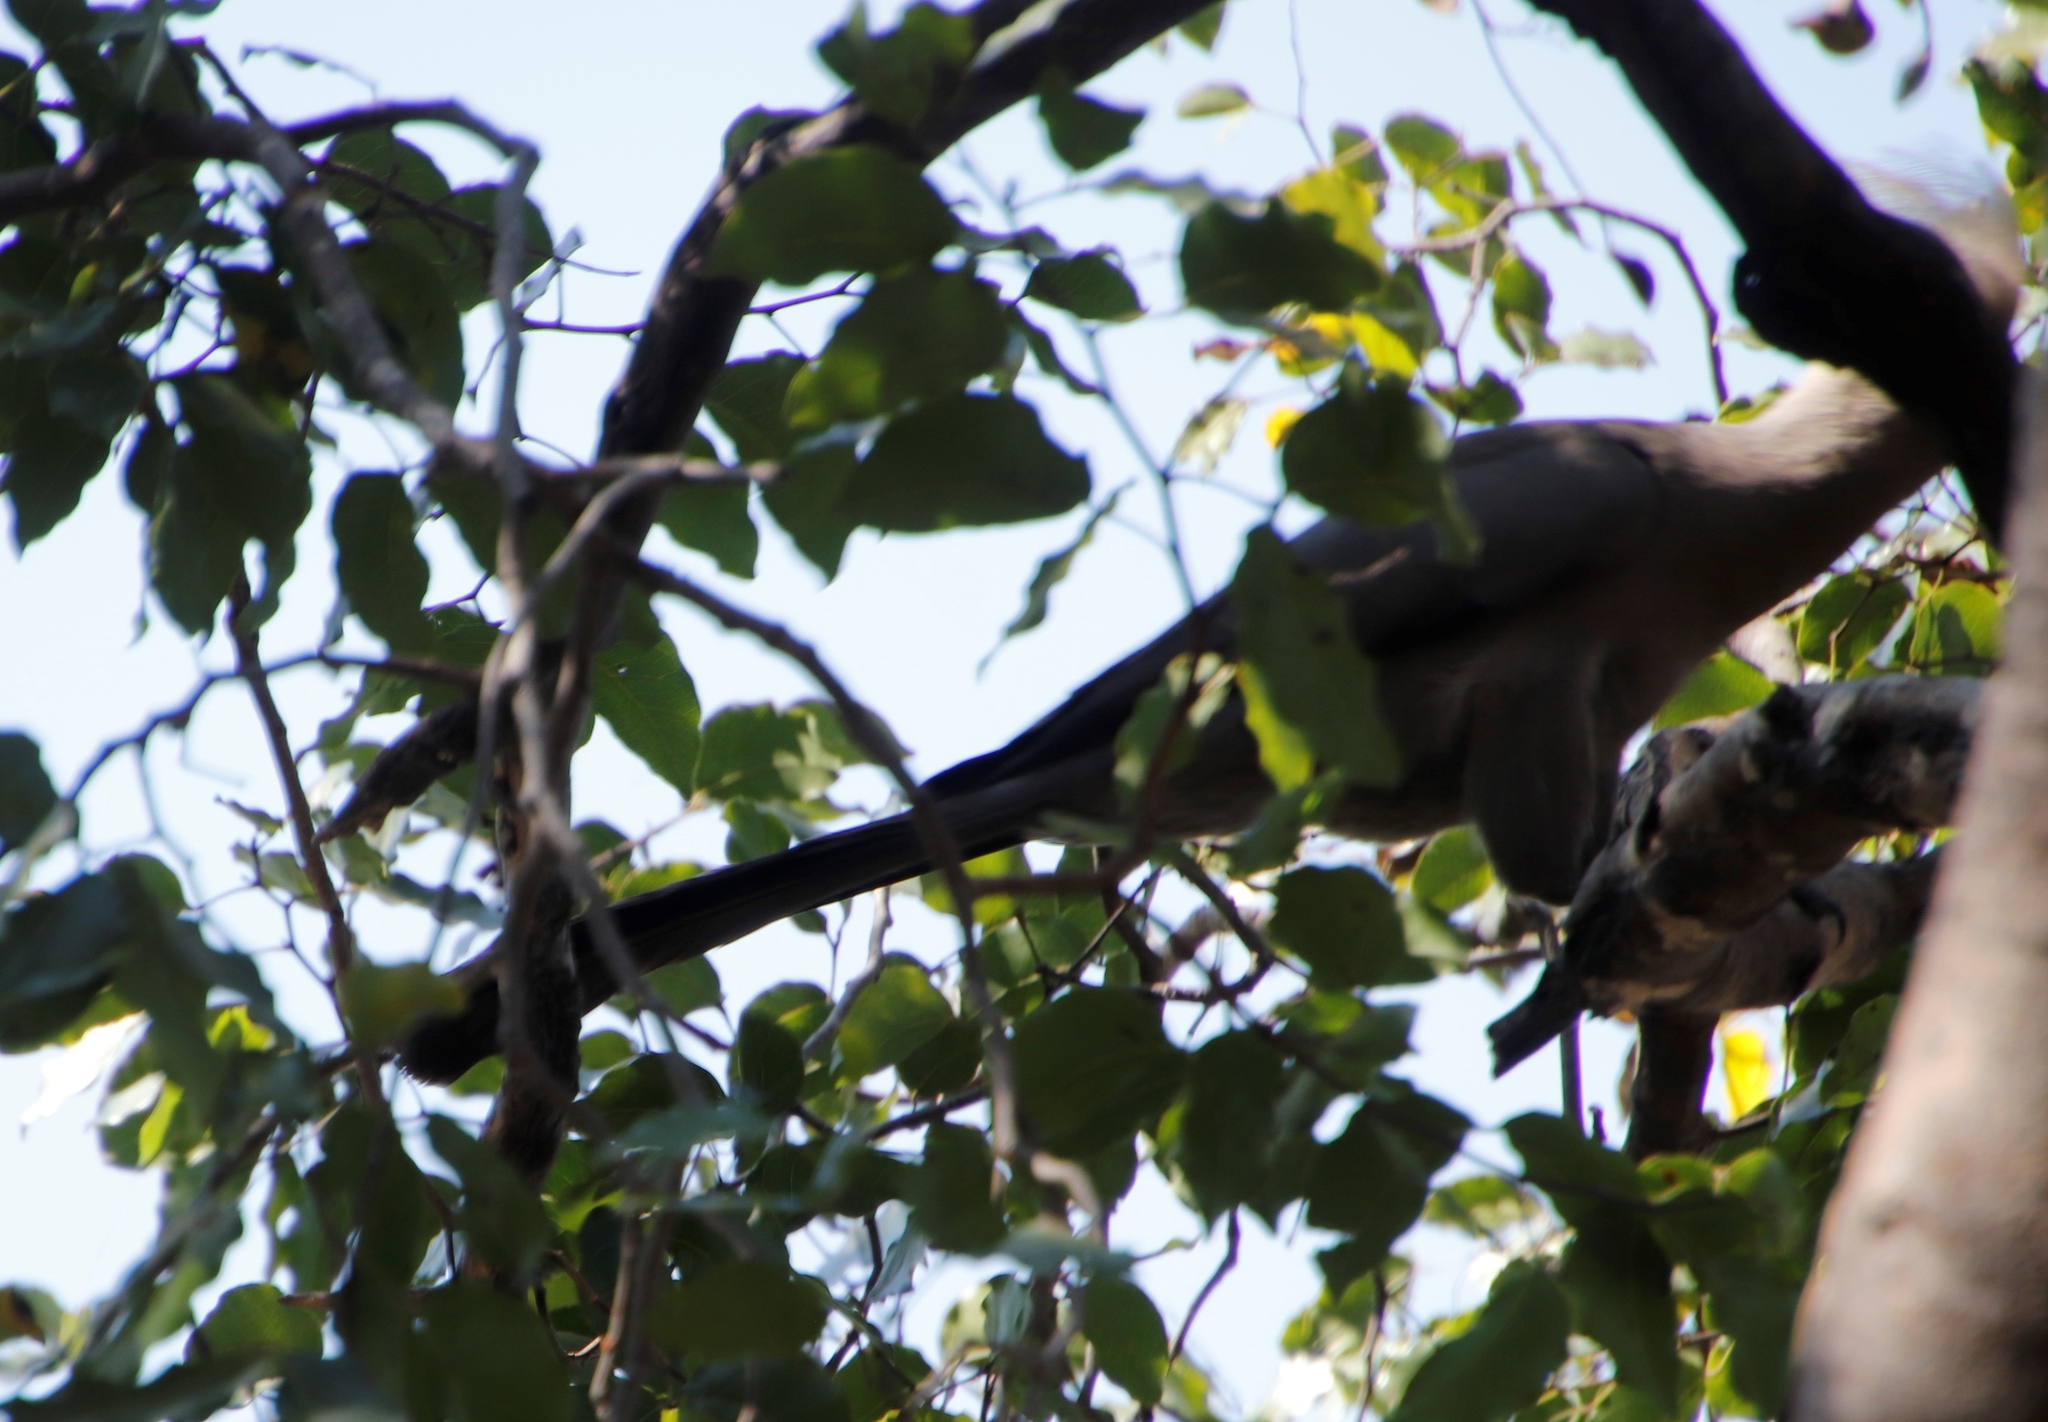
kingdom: Animalia
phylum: Chordata
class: Aves
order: Musophagiformes
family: Musophagidae
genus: Corythaixoides
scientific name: Corythaixoides concolor
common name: Grey go-away-bird
